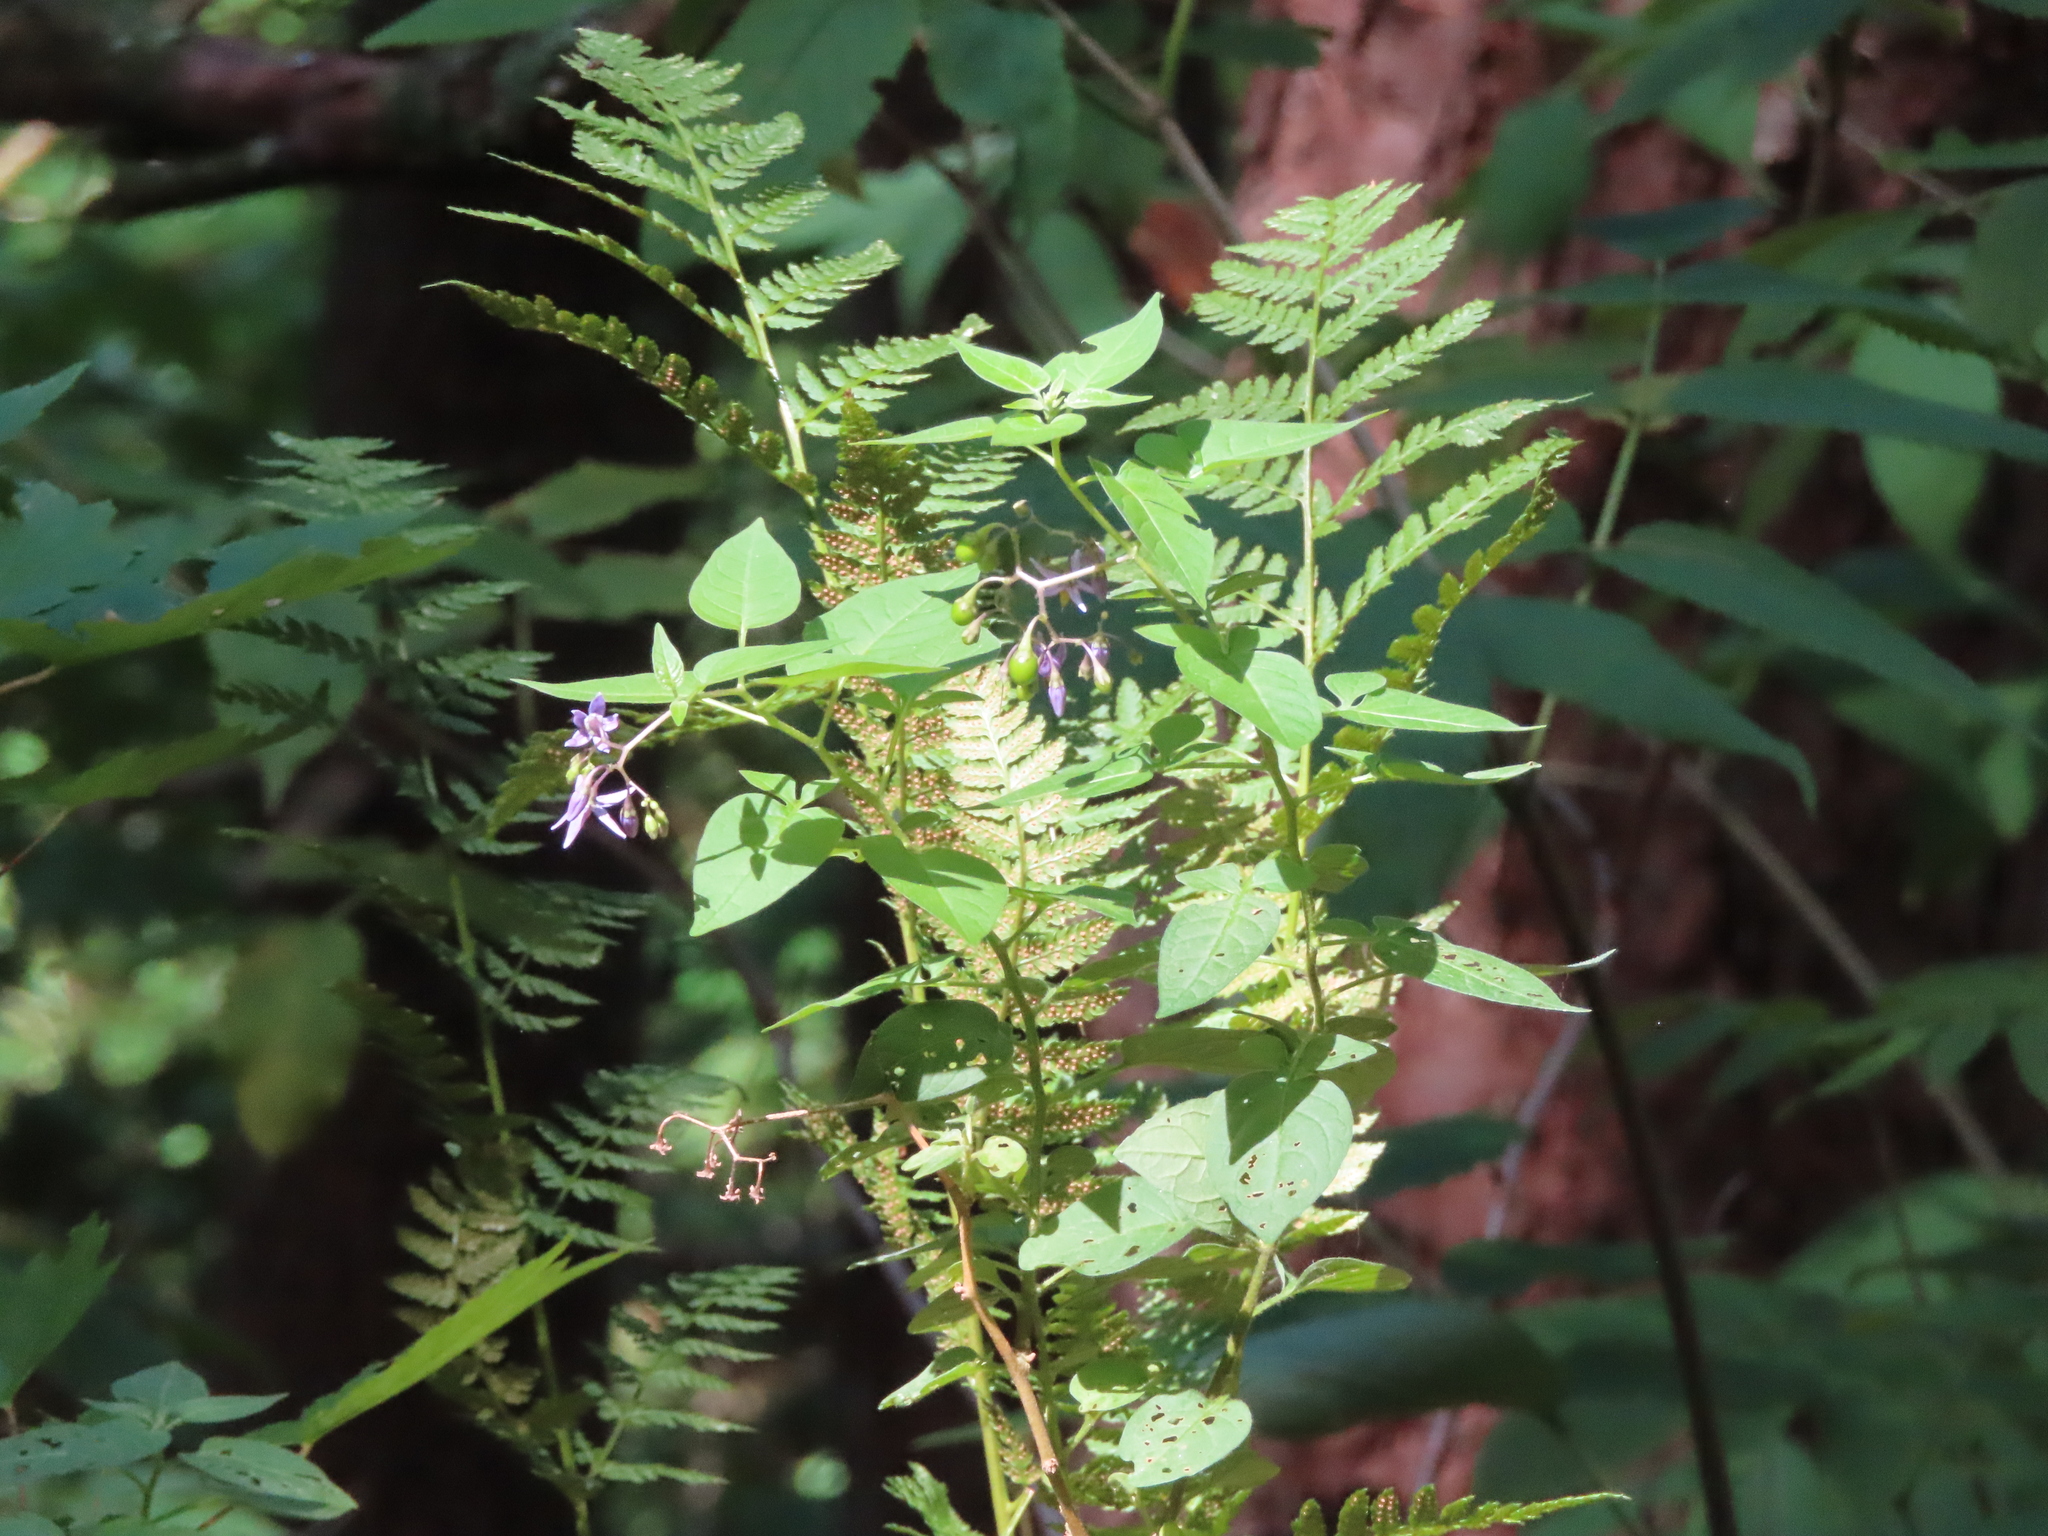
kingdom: Plantae
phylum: Tracheophyta
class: Magnoliopsida
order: Solanales
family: Solanaceae
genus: Solanum
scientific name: Solanum dulcamara
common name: Climbing nightshade
